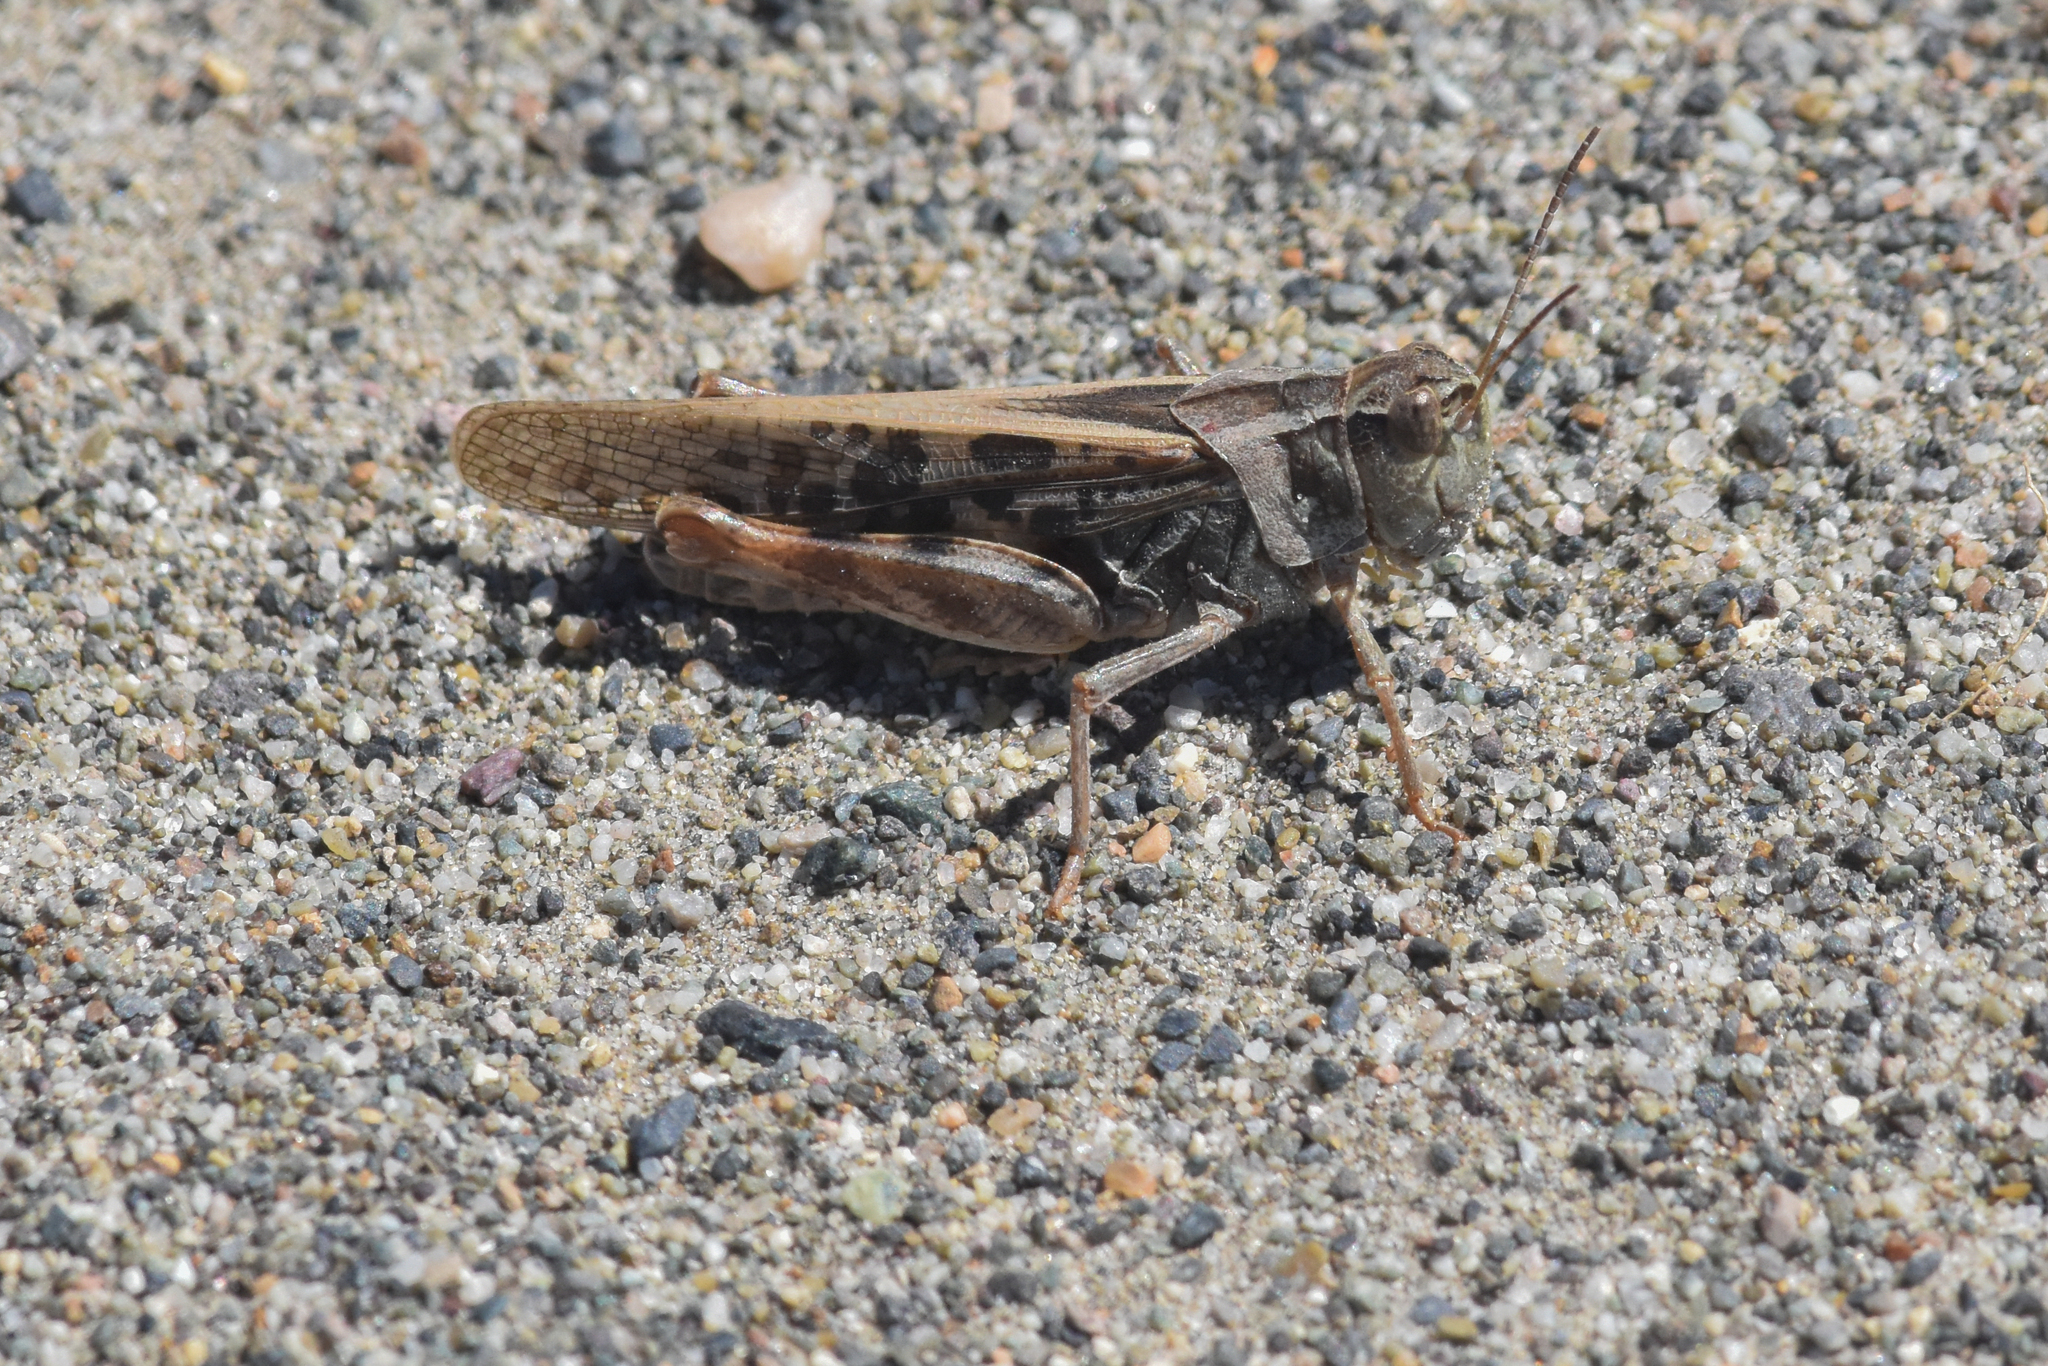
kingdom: Animalia
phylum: Arthropoda
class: Insecta
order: Orthoptera
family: Acrididae
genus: Camnula
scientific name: Camnula pellucida
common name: Clear-winged grasshopper
